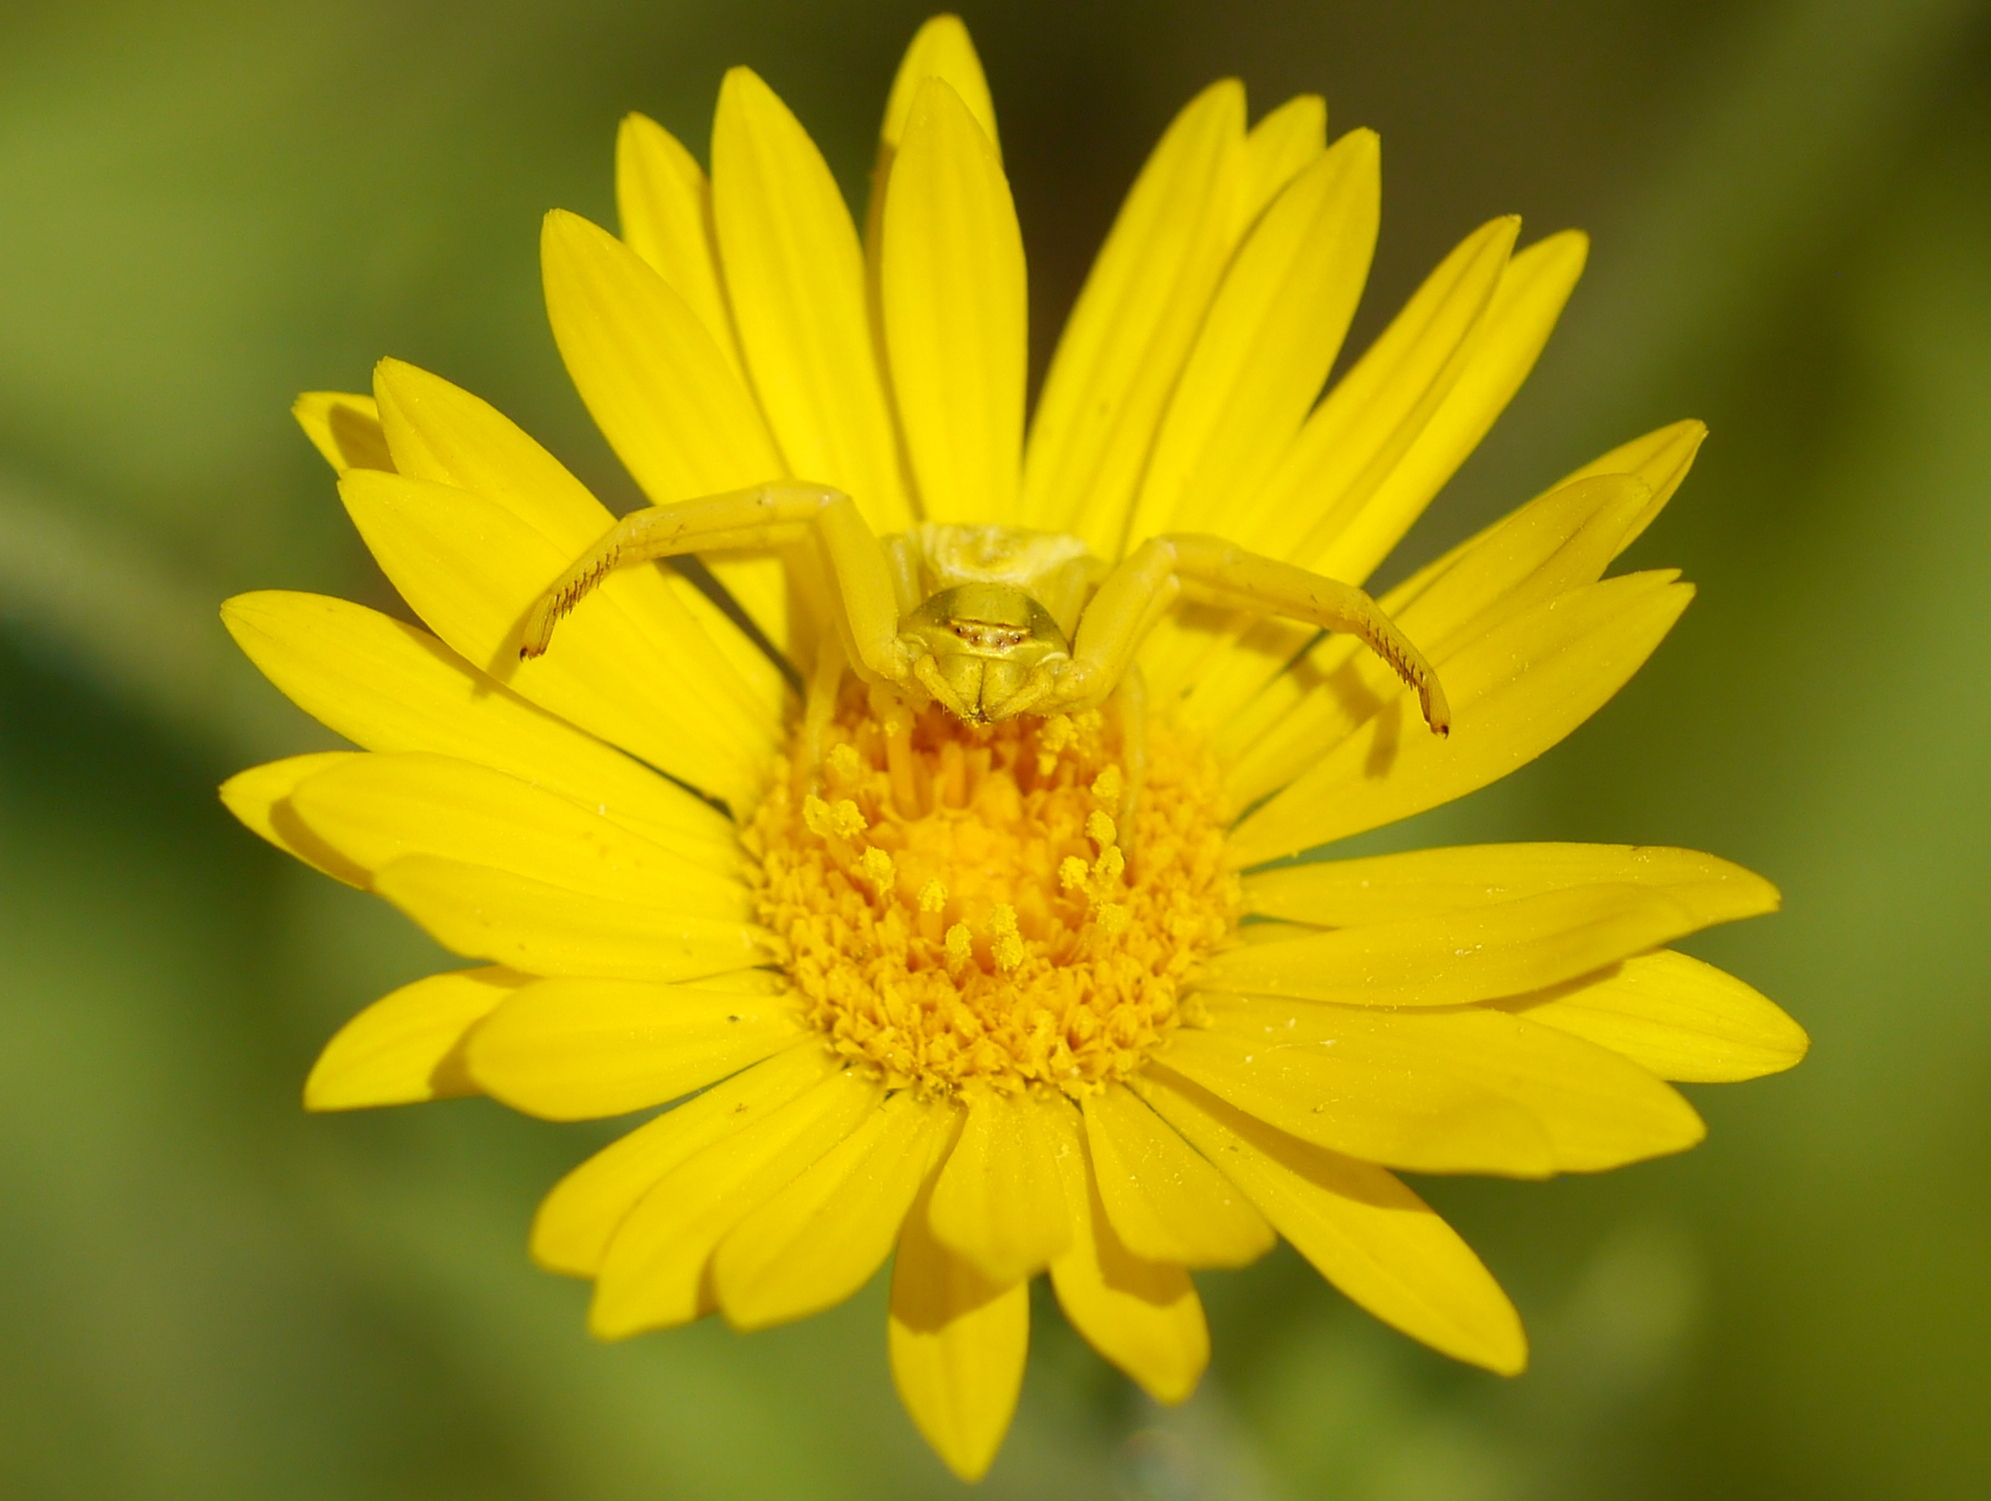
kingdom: Animalia
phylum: Arthropoda
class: Arachnida
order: Araneae
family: Thomisidae
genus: Misumenoides
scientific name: Misumenoides formosipes
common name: White-banded crab spider
